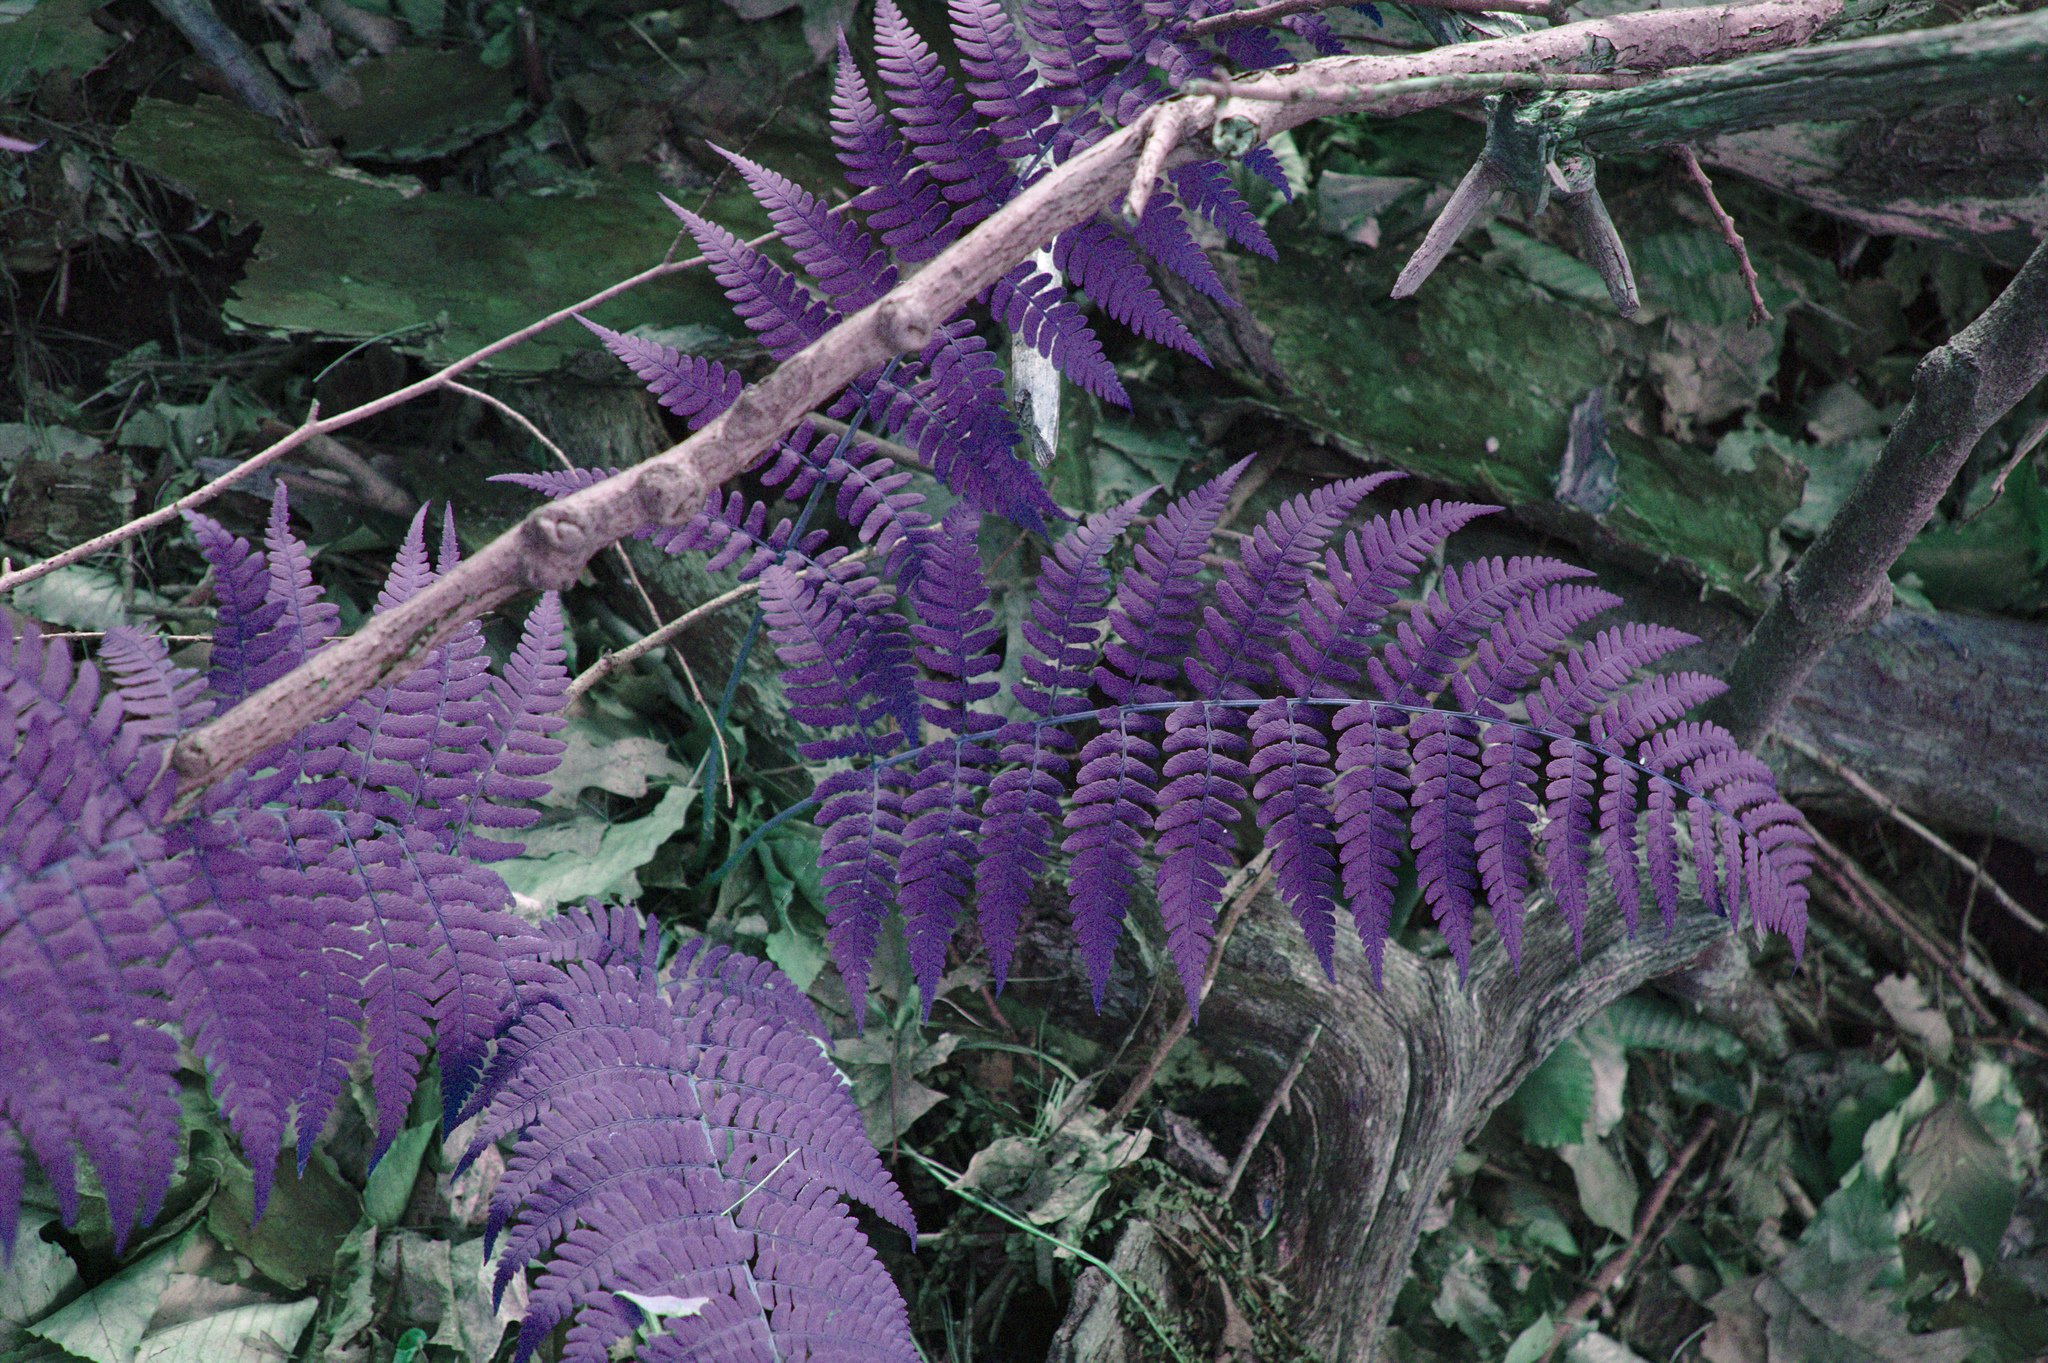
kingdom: Plantae
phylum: Tracheophyta
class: Polypodiopsida
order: Polypodiales
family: Dryopteridaceae
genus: Dryopteris
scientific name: Dryopteris marginalis
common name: Marginal wood fern
